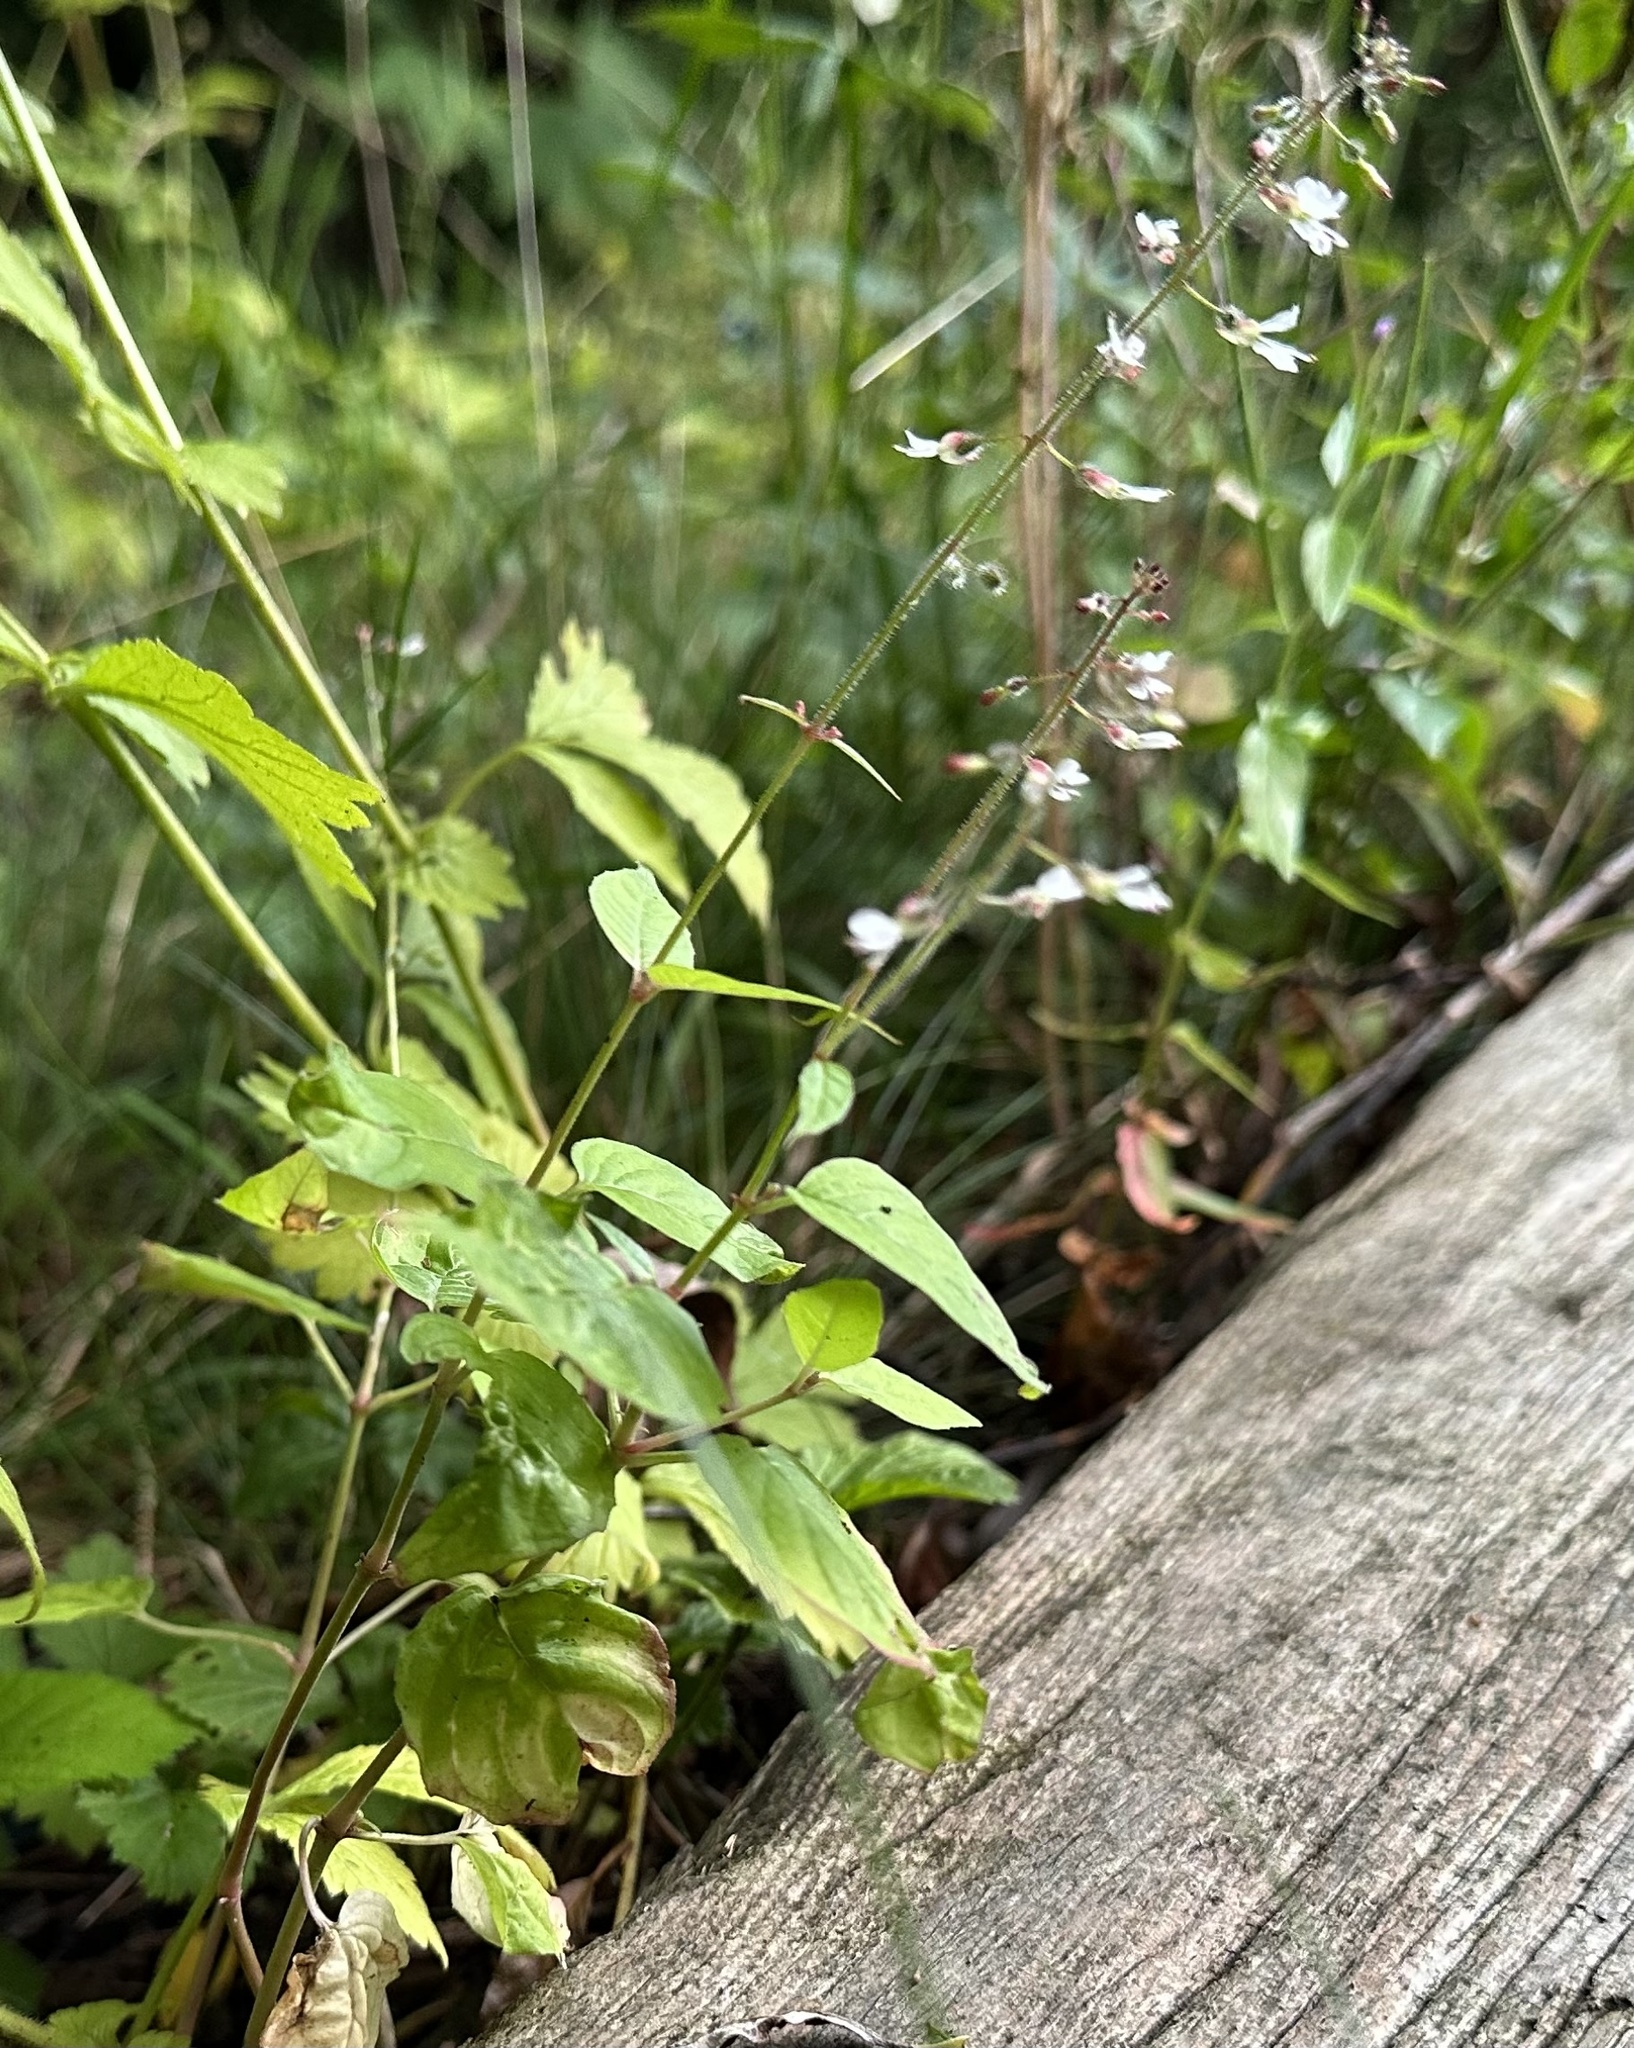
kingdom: Plantae
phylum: Tracheophyta
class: Magnoliopsida
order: Myrtales
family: Onagraceae
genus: Circaea
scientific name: Circaea lutetiana
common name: Enchanter's-nightshade
